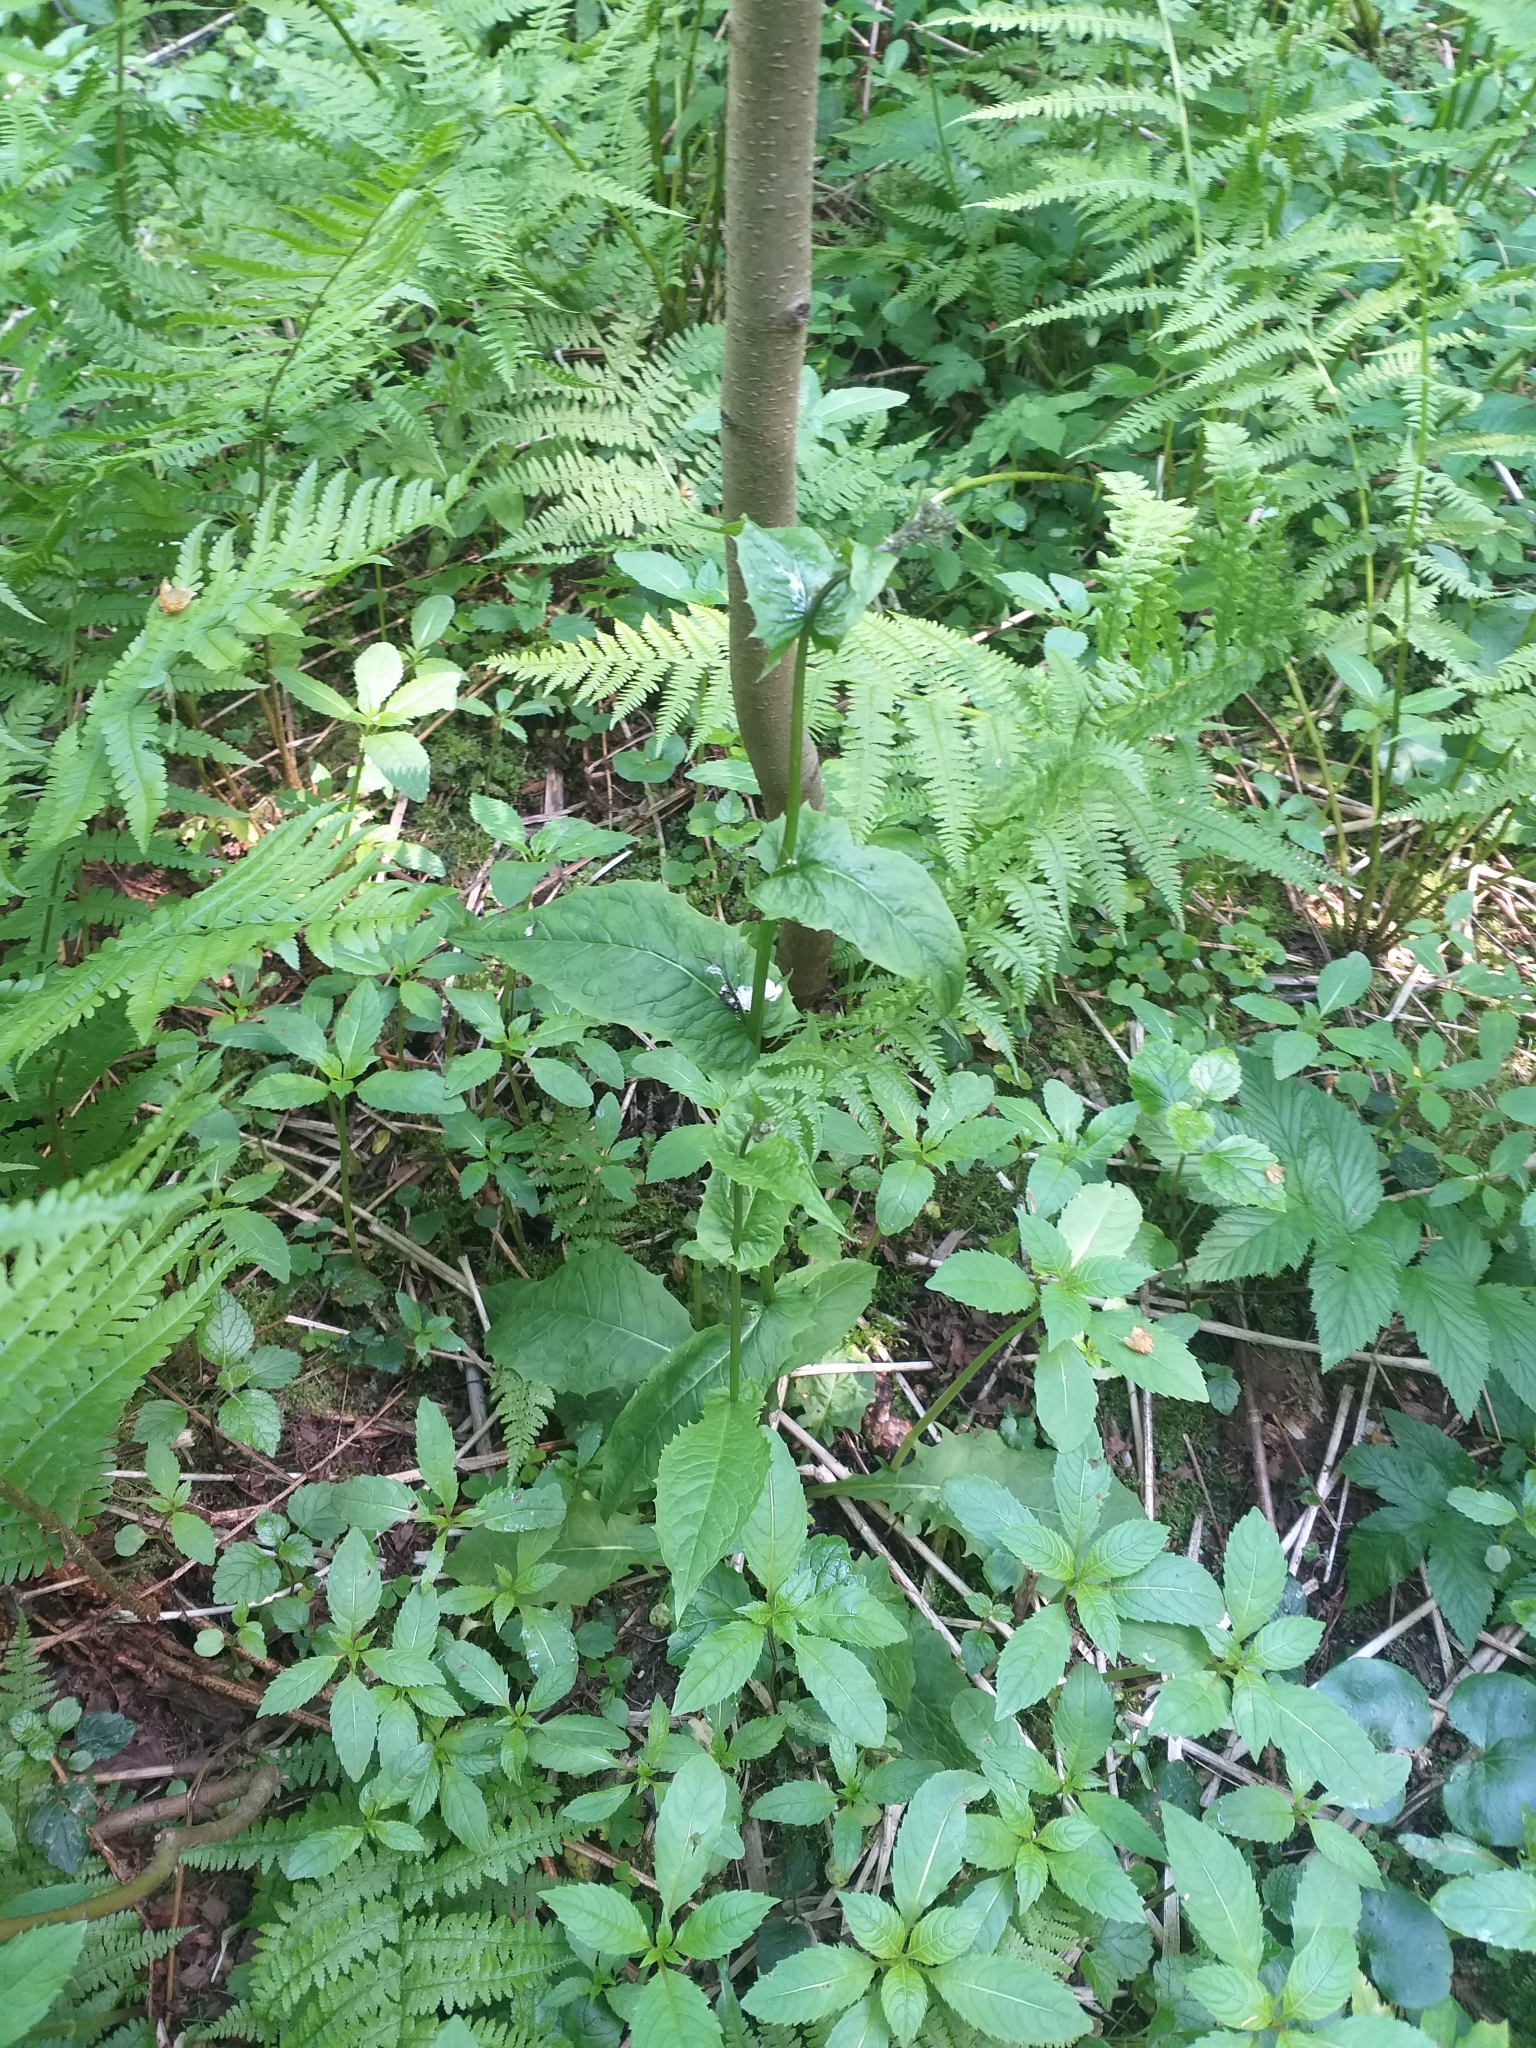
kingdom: Plantae
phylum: Tracheophyta
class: Magnoliopsida
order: Asterales
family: Asteraceae
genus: Crepis
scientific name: Crepis paludosa
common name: Marsh hawk's-beard
